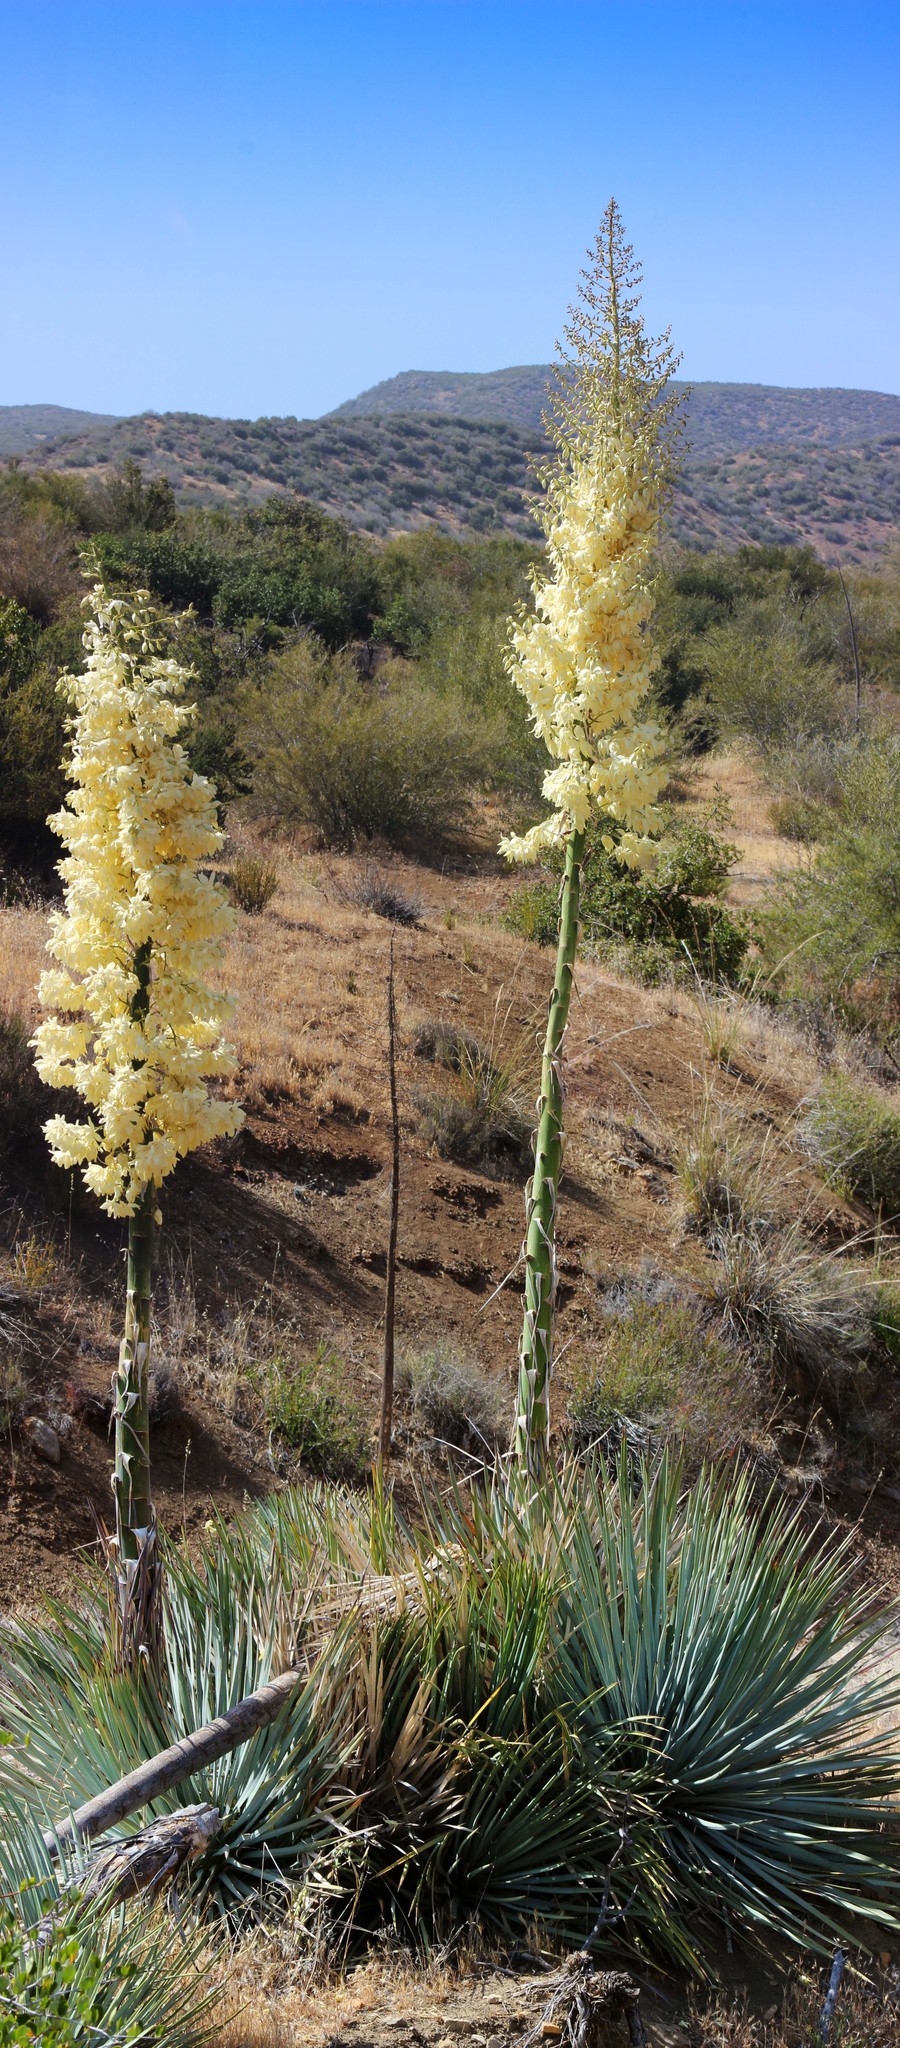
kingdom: Plantae
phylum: Tracheophyta
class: Liliopsida
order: Asparagales
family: Asparagaceae
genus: Hesperoyucca
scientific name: Hesperoyucca whipplei
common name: Our lord's-candle
